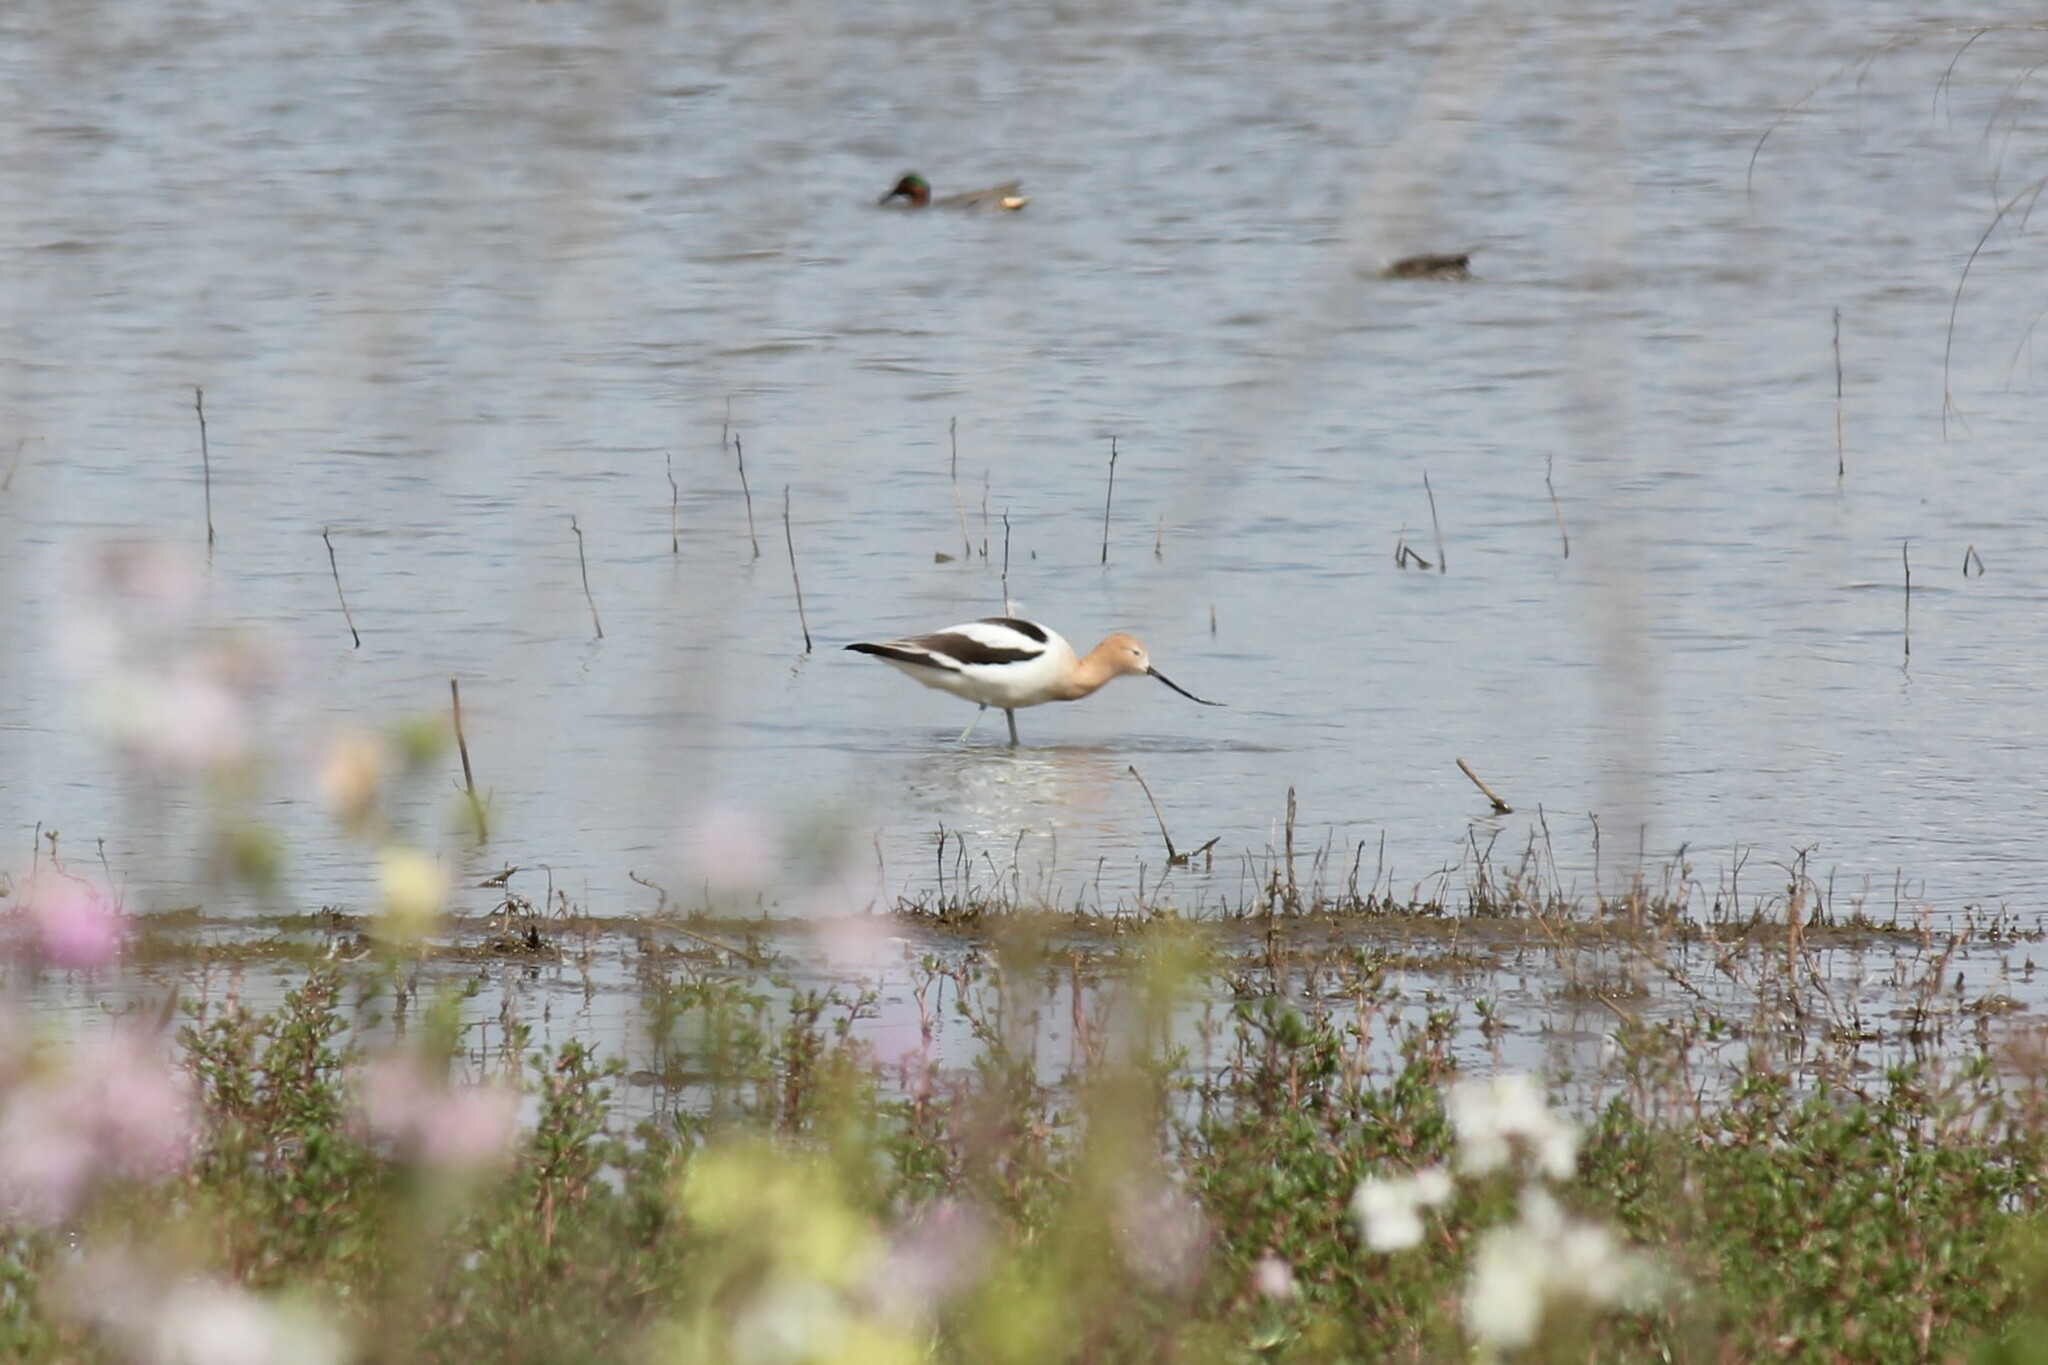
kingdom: Animalia
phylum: Chordata
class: Aves
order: Charadriiformes
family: Recurvirostridae
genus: Recurvirostra
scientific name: Recurvirostra americana
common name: American avocet
